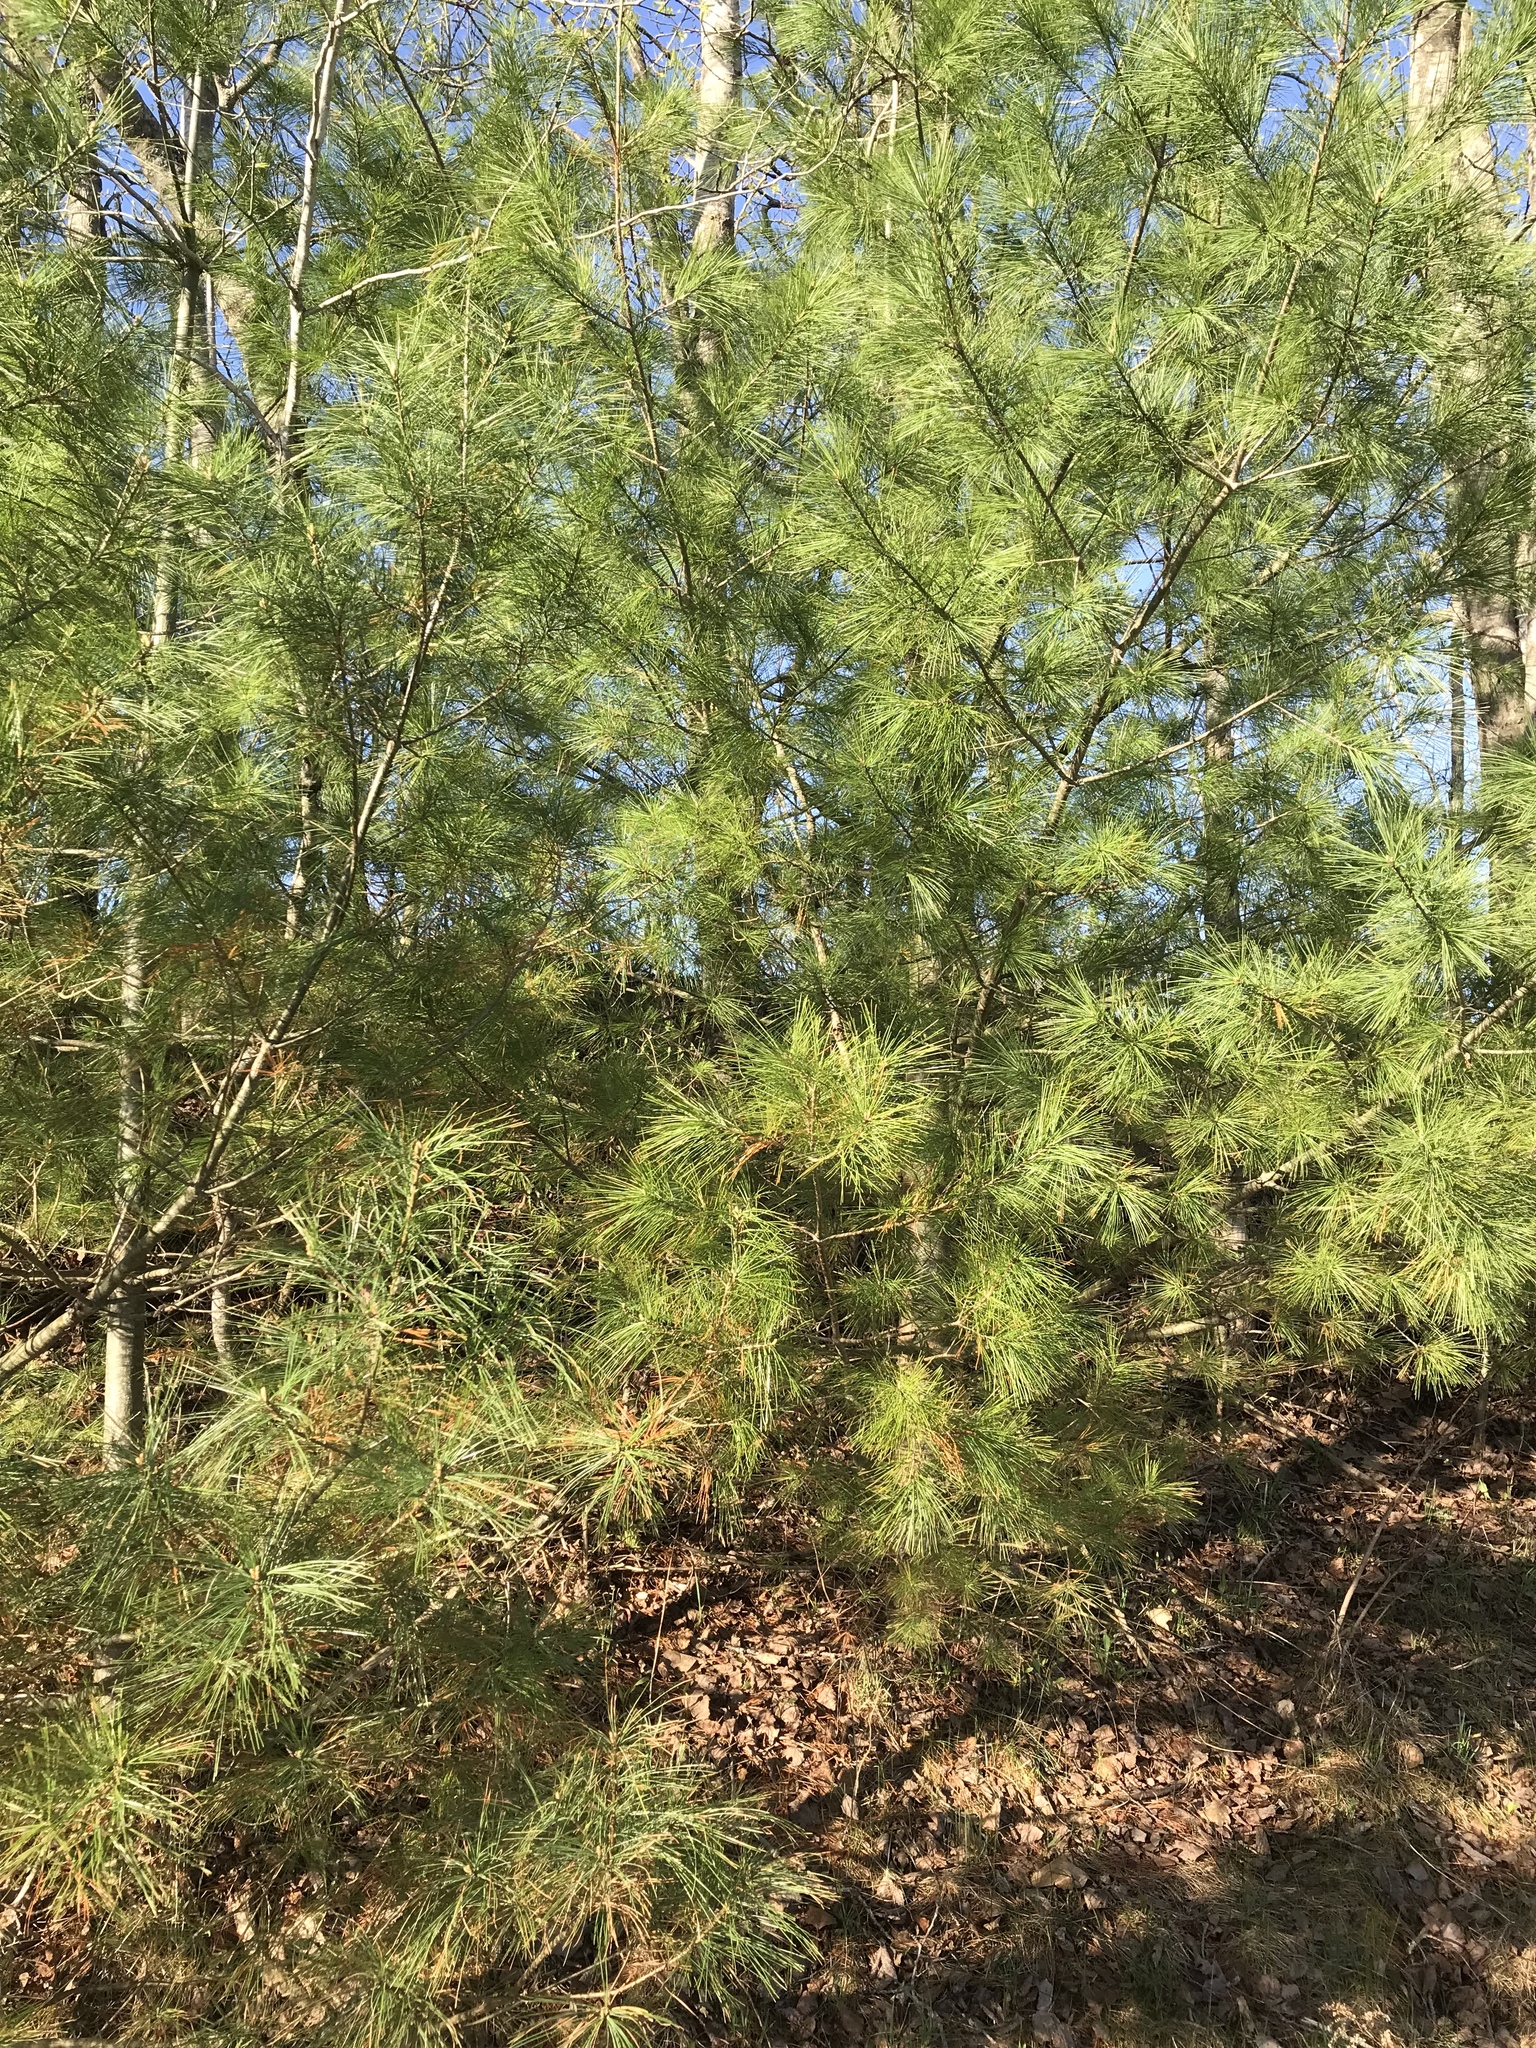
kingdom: Plantae
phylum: Tracheophyta
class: Pinopsida
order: Pinales
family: Pinaceae
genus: Pinus
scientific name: Pinus strobus
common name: Weymouth pine
